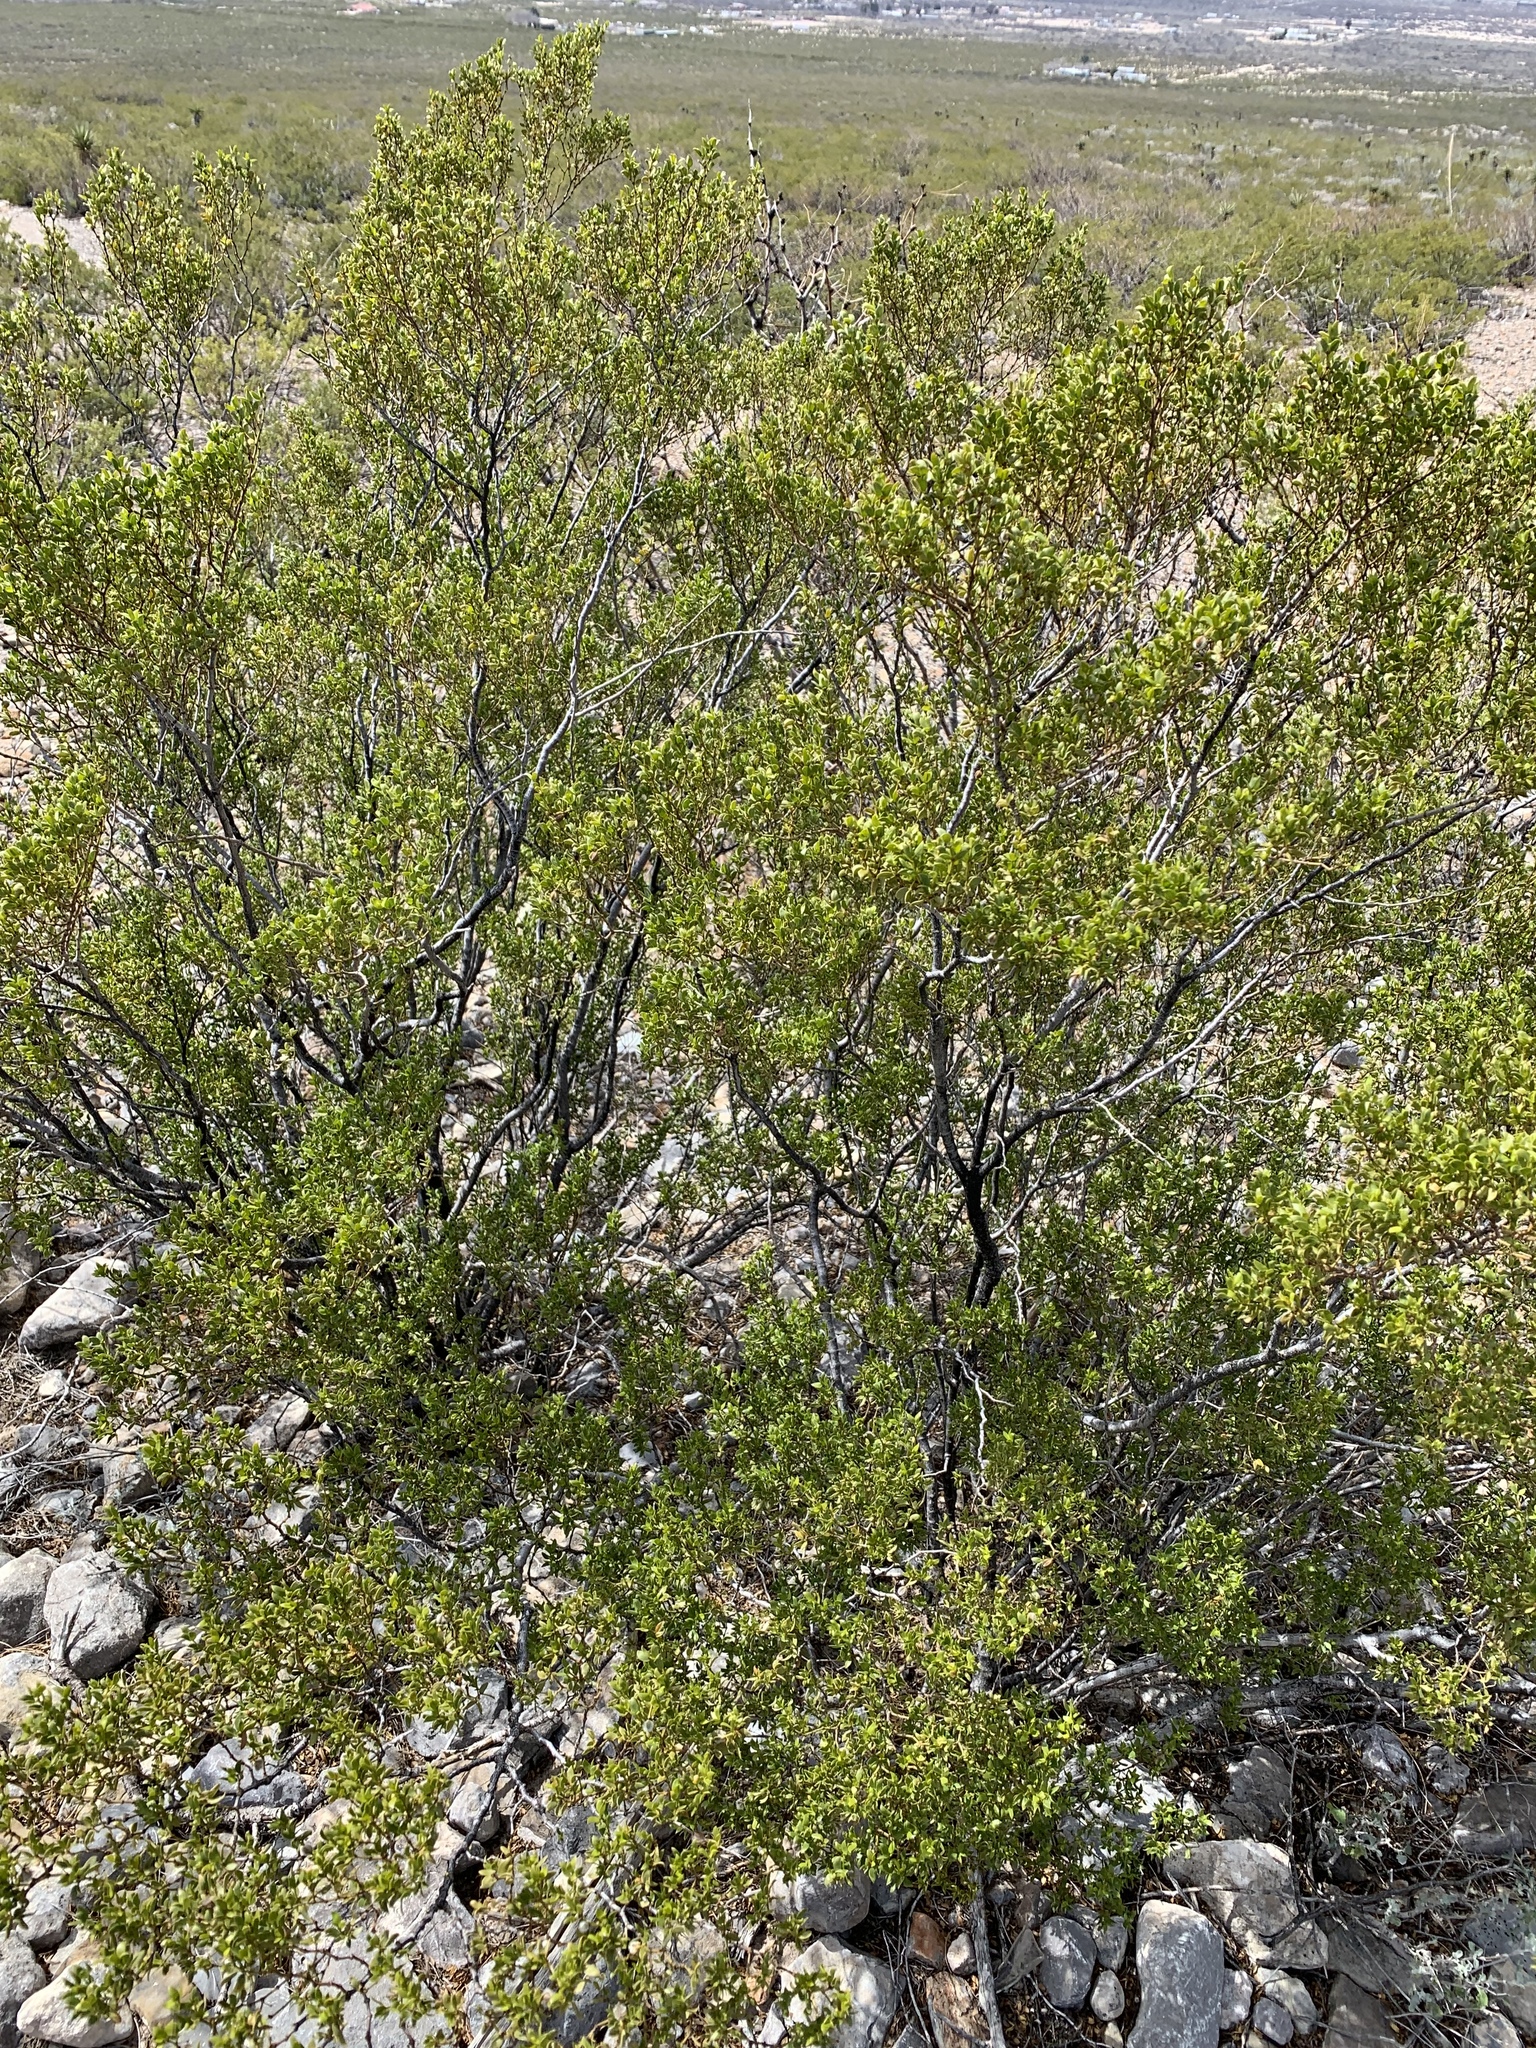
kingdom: Plantae
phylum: Tracheophyta
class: Magnoliopsida
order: Zygophyllales
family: Zygophyllaceae
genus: Larrea
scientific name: Larrea tridentata
